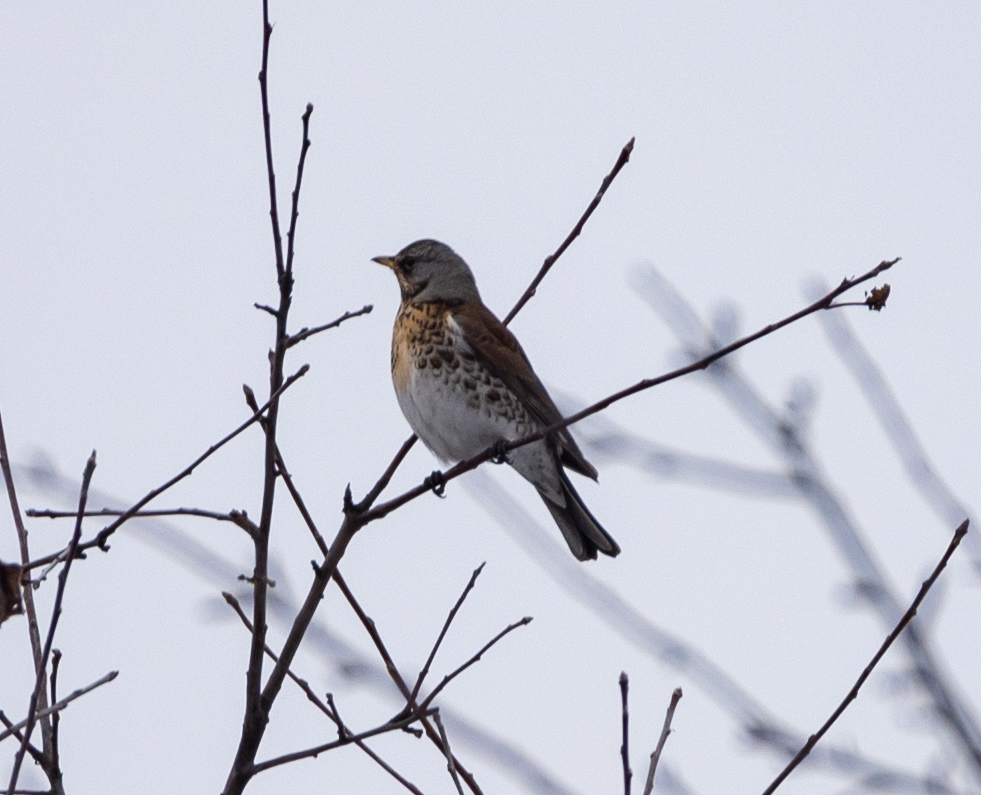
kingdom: Animalia
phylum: Chordata
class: Aves
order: Passeriformes
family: Turdidae
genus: Turdus
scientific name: Turdus pilaris
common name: Fieldfare
